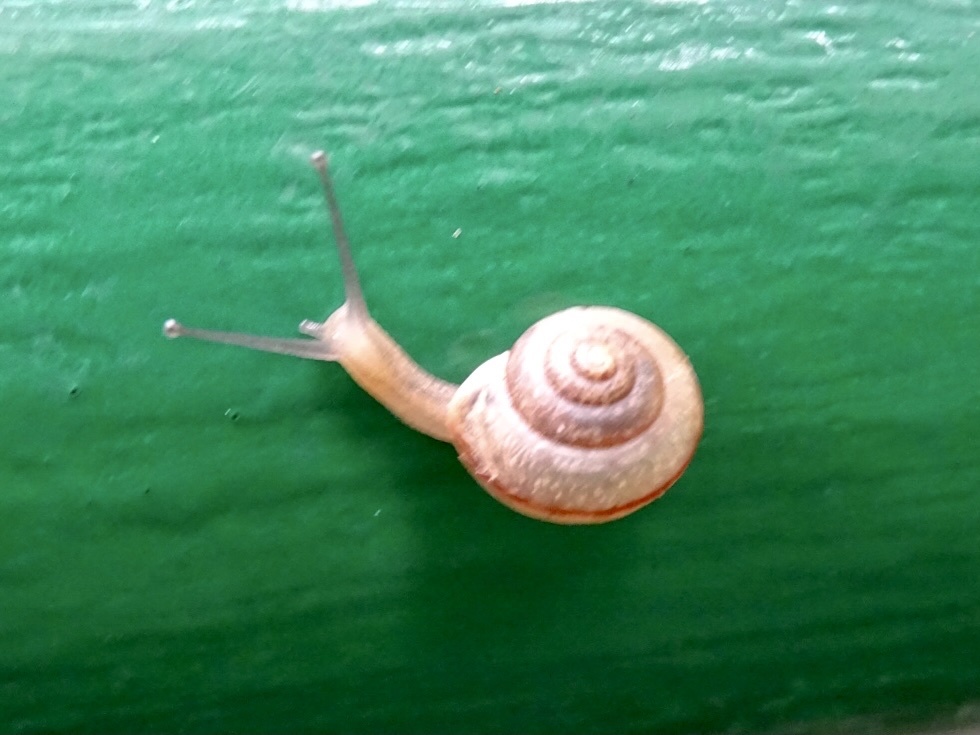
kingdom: Animalia
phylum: Mollusca
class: Gastropoda
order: Stylommatophora
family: Camaenidae
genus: Bradybaena
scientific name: Bradybaena similaris
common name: Asian trampsnail
